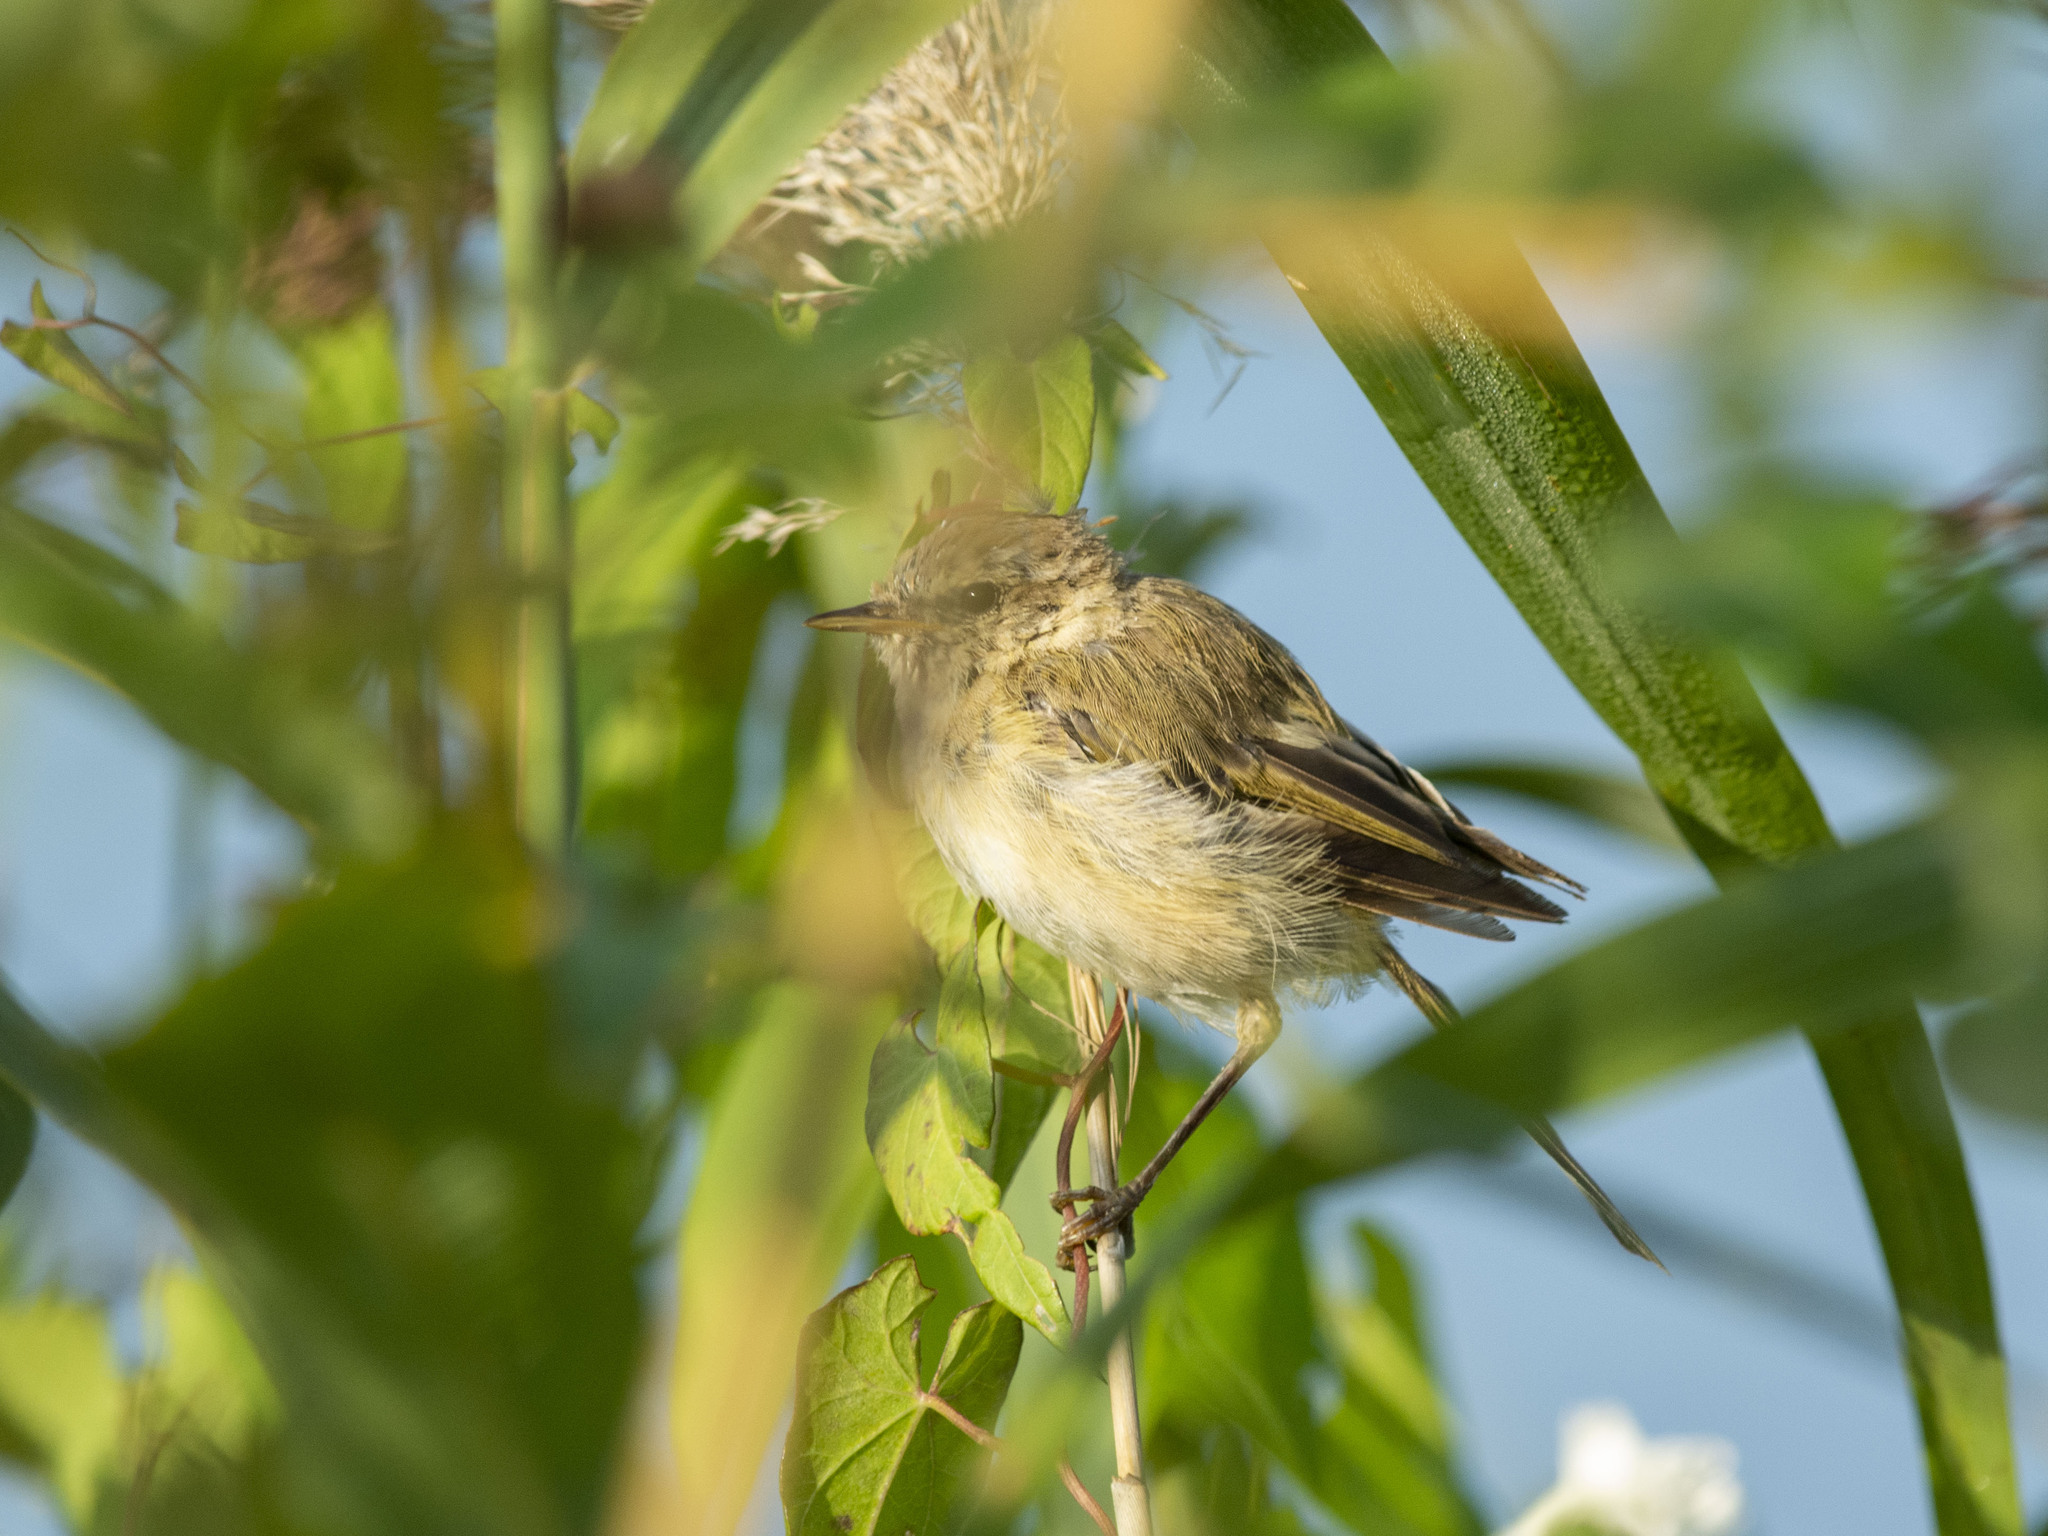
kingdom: Animalia
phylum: Chordata
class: Aves
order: Passeriformes
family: Phylloscopidae
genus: Phylloscopus
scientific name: Phylloscopus collybita
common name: Common chiffchaff
